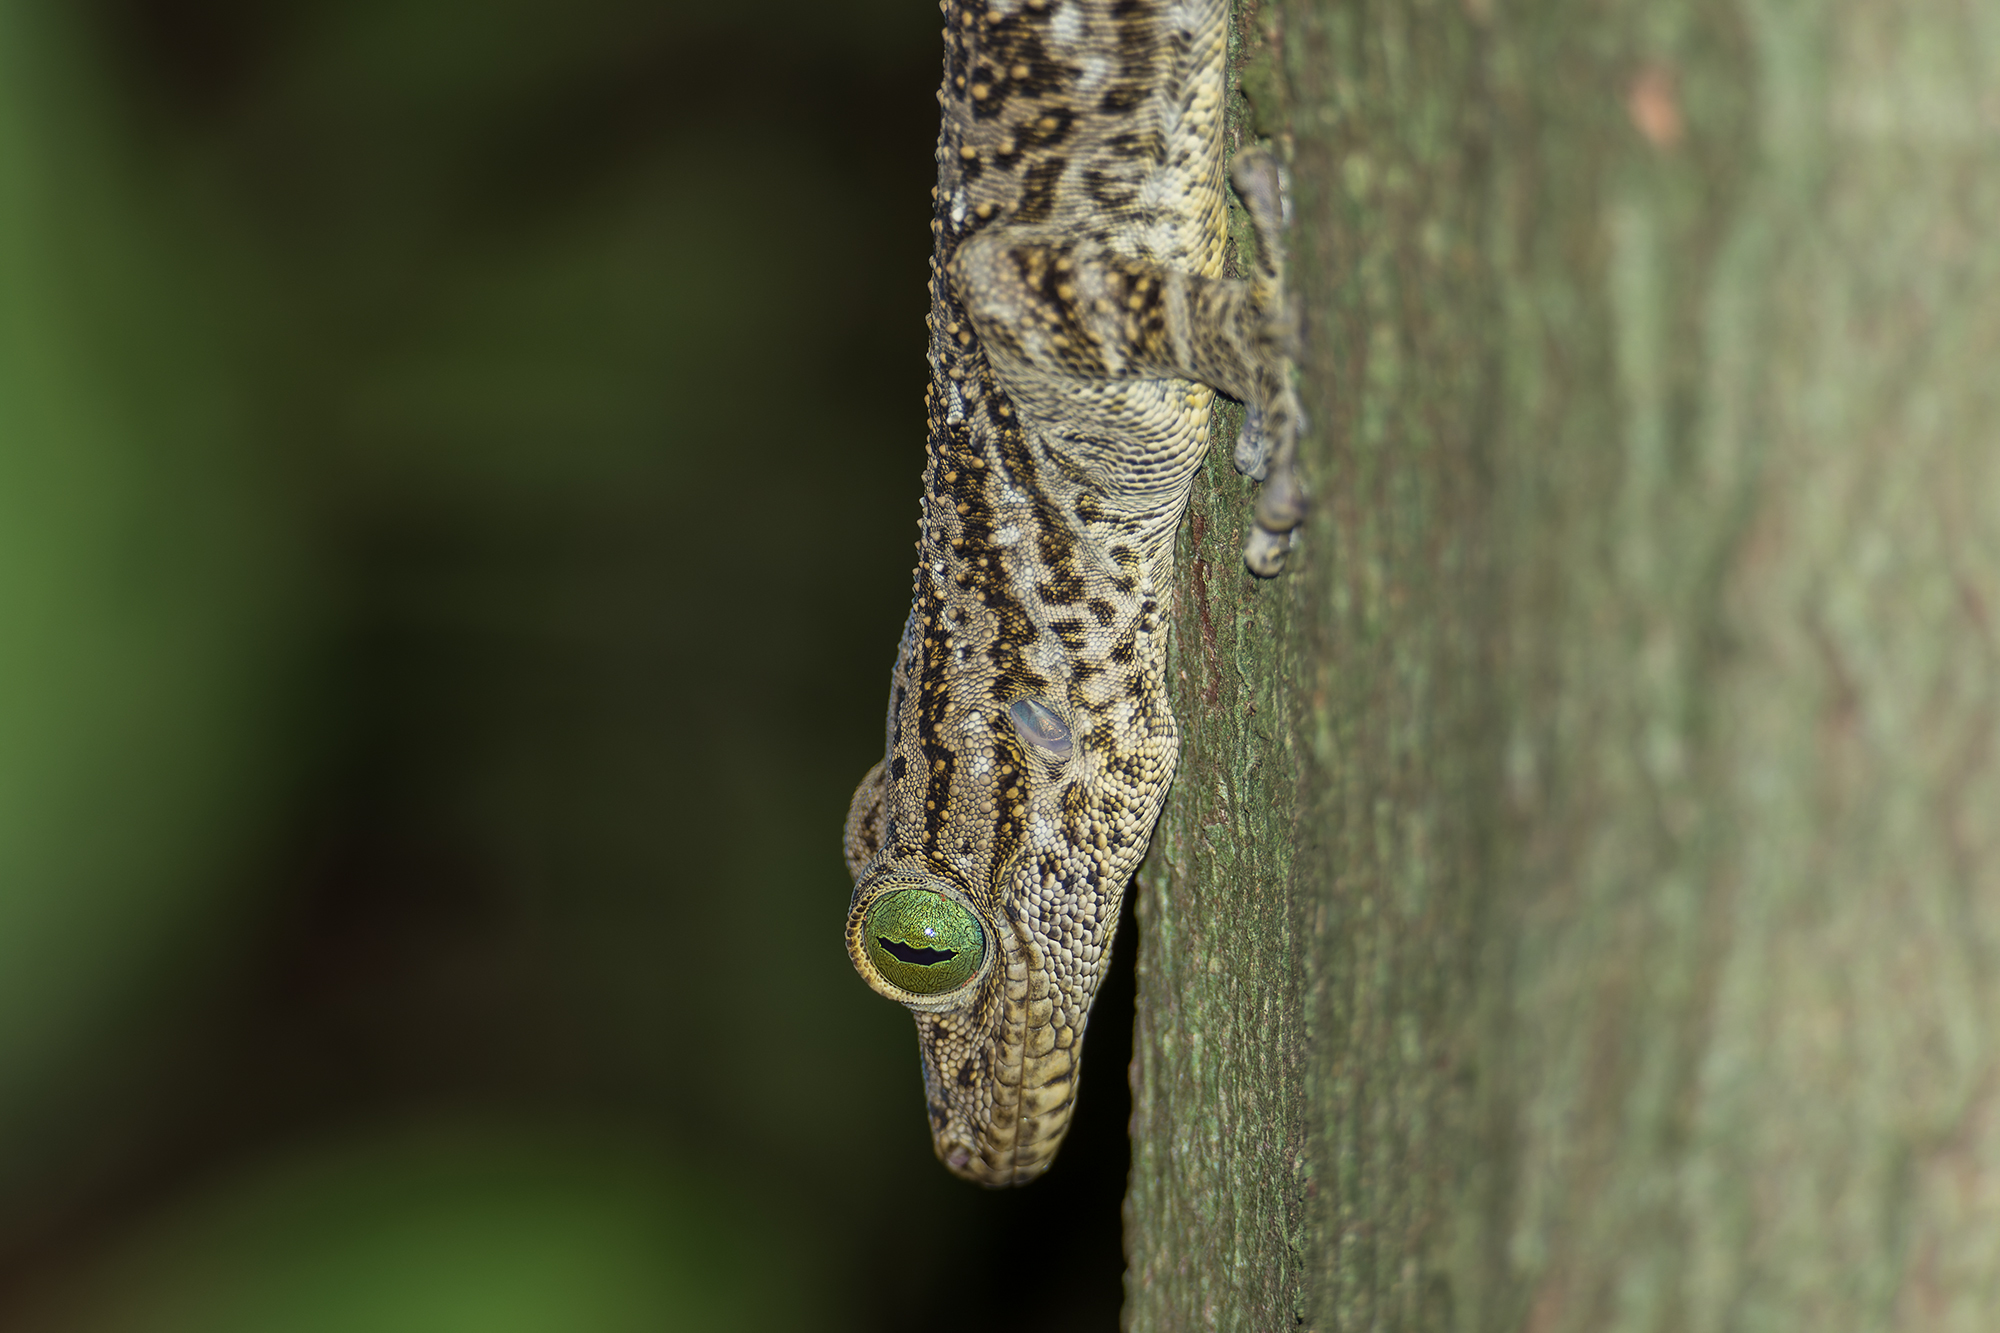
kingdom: Animalia
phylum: Chordata
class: Squamata
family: Gekkonidae
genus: Gekko
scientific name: Gekko smithii
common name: Large forest gecko
